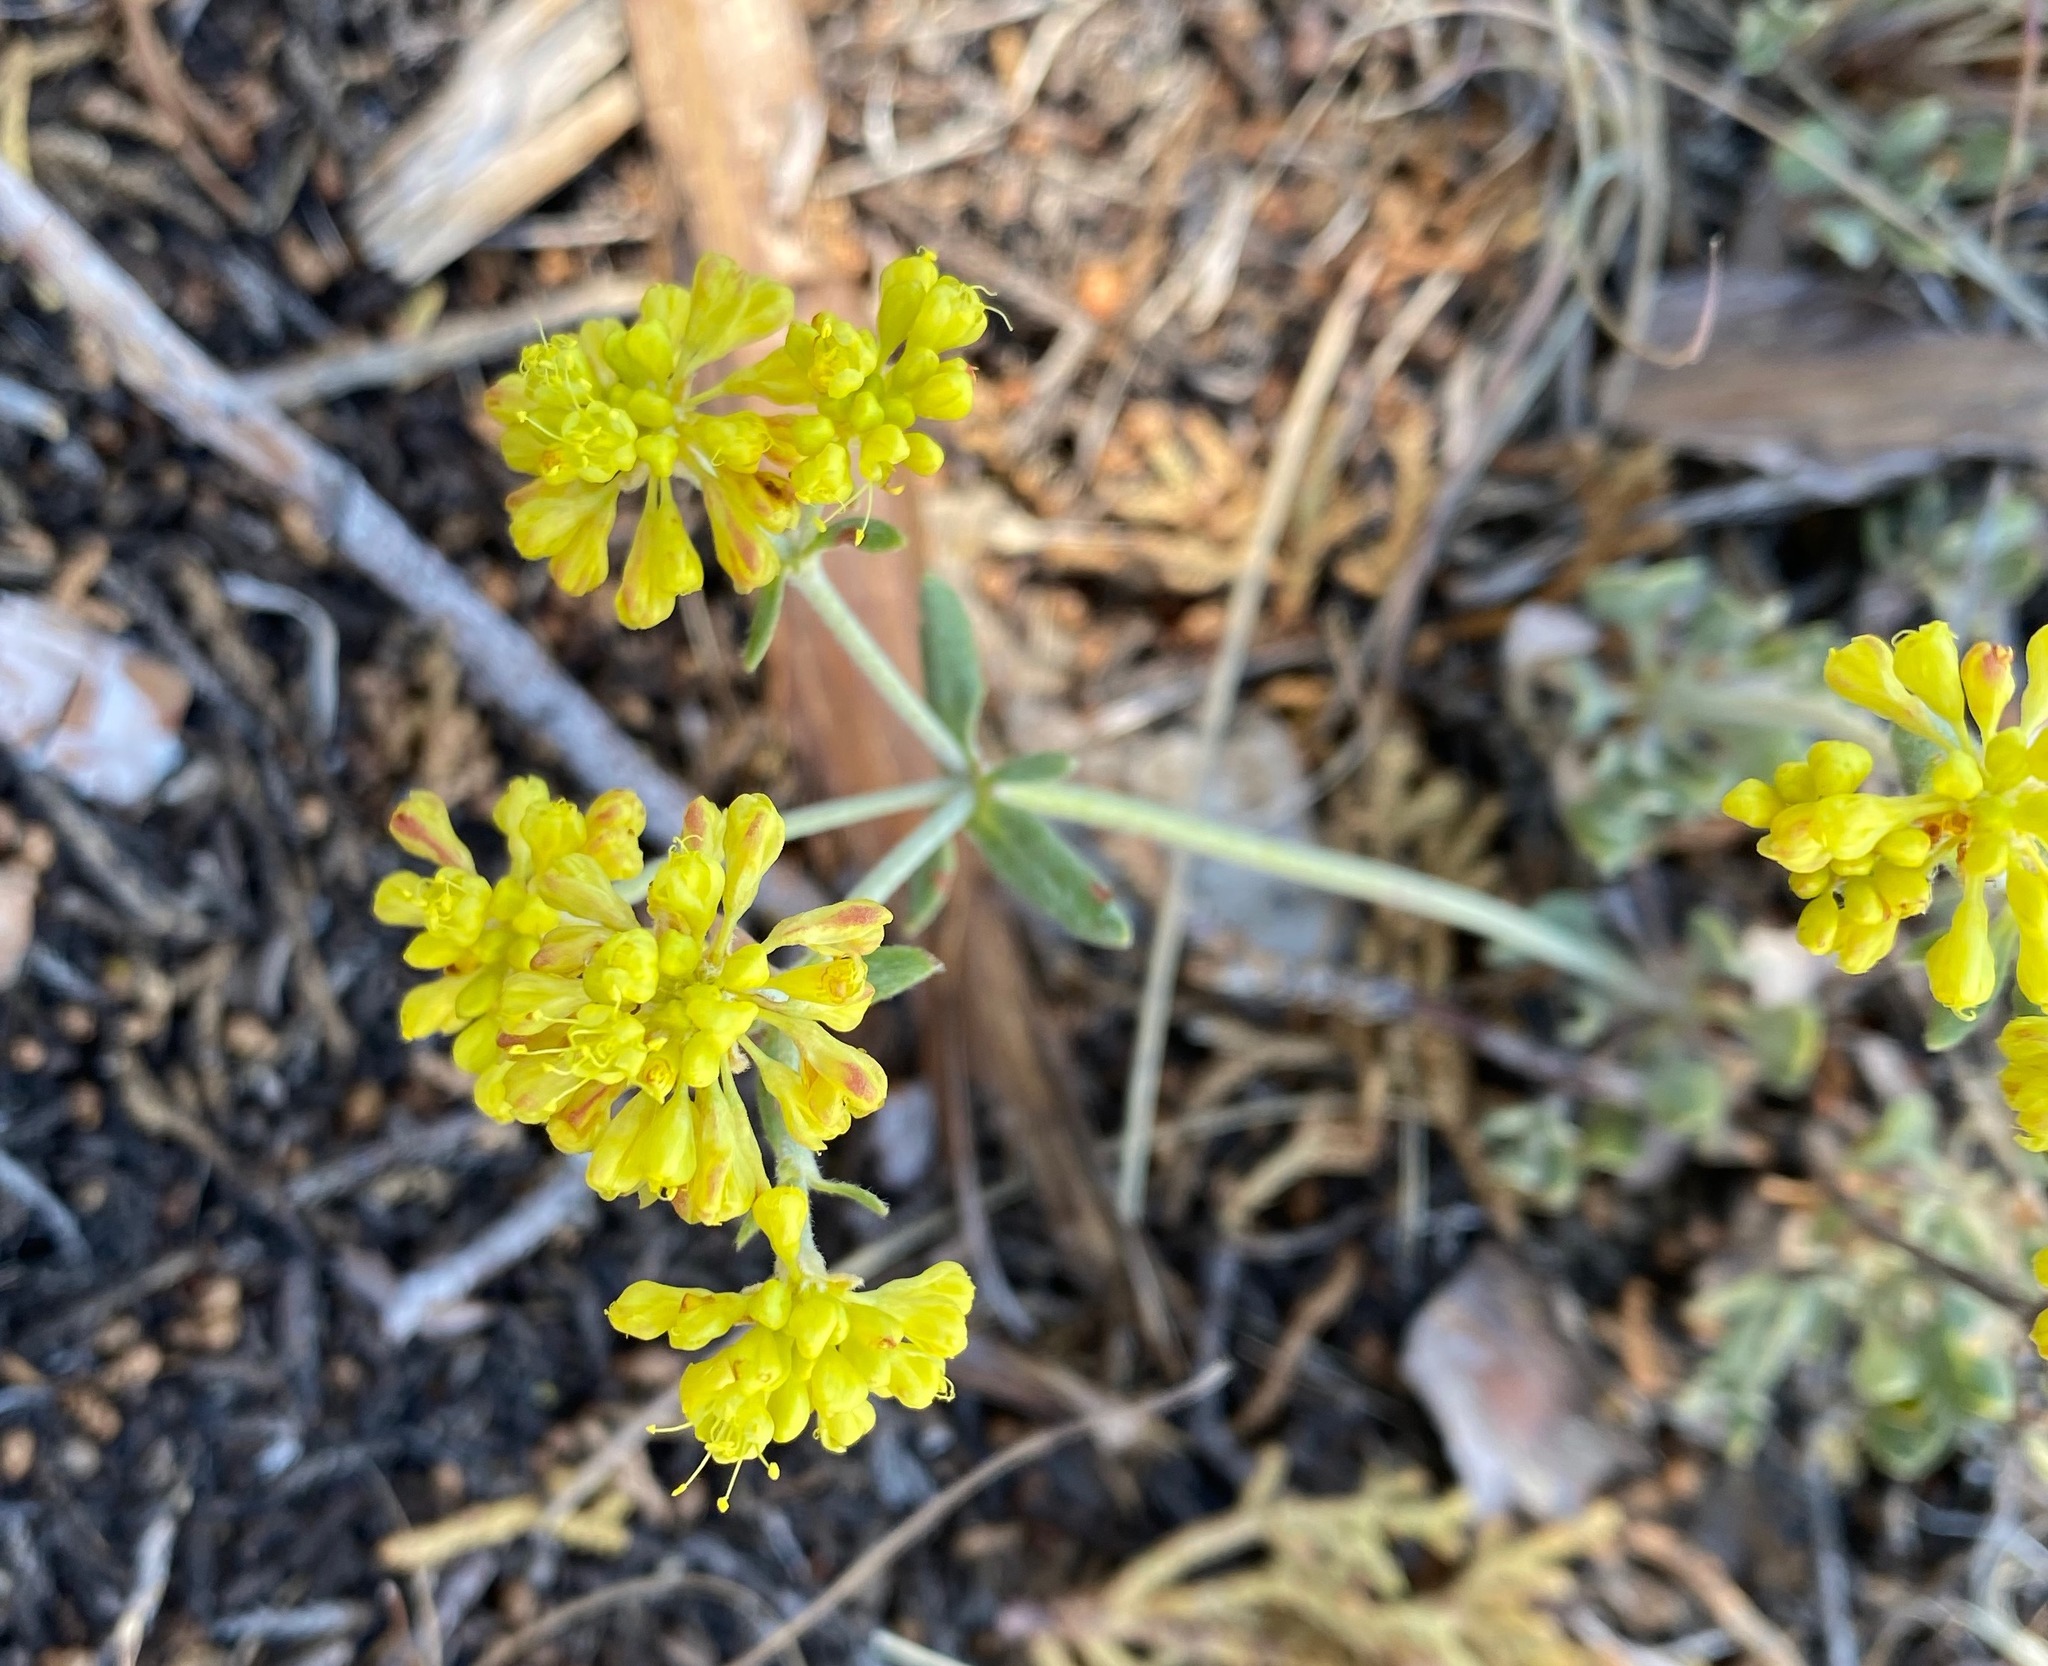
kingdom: Plantae
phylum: Tracheophyta
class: Magnoliopsida
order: Caryophyllales
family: Polygonaceae
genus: Eriogonum
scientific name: Eriogonum umbellatum
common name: Sulfur-buckwheat
